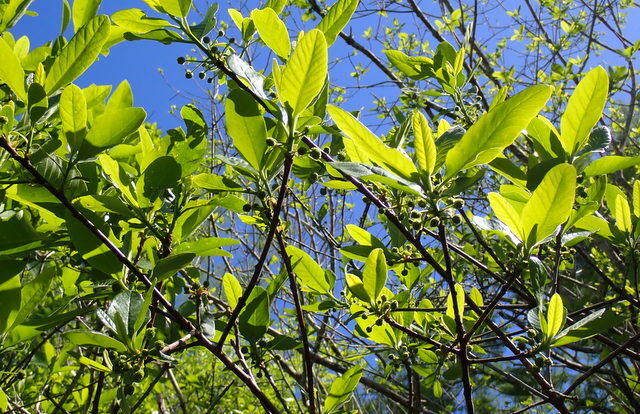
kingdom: Plantae
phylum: Tracheophyta
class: Magnoliopsida
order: Cornales
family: Nyssaceae
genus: Nyssa
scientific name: Nyssa ogeche
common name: Ogeechee tupelo
